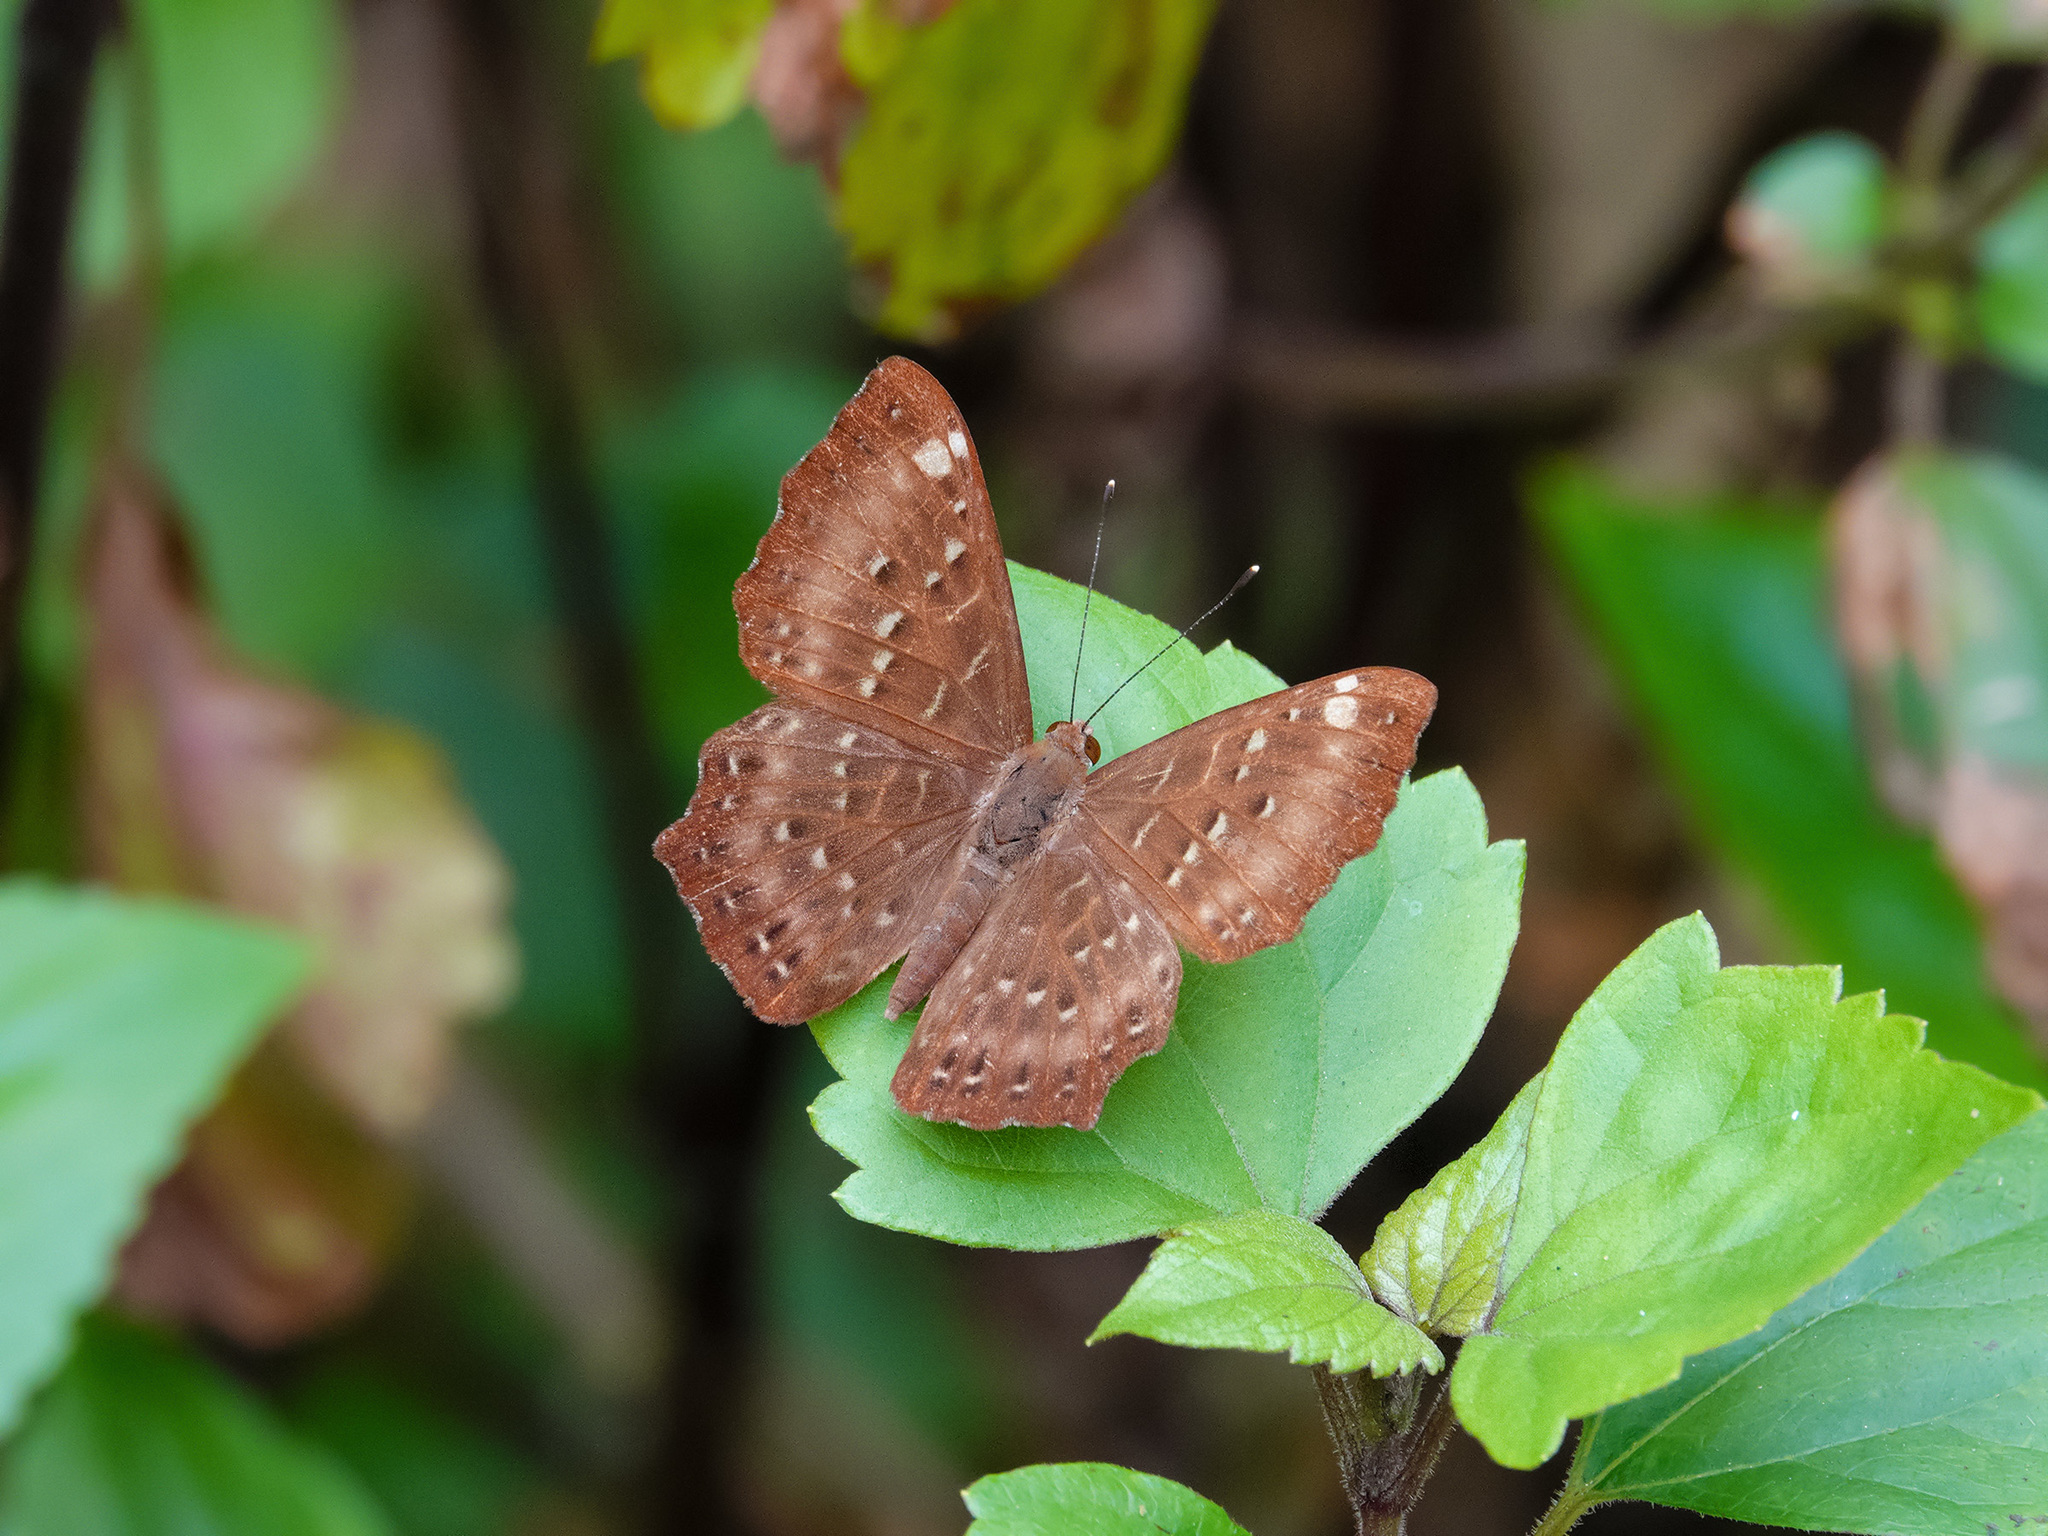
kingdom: Animalia
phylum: Arthropoda
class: Insecta
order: Lepidoptera
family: Riodinidae
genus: Zemeros
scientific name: Zemeros flegyas
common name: Punchinello
